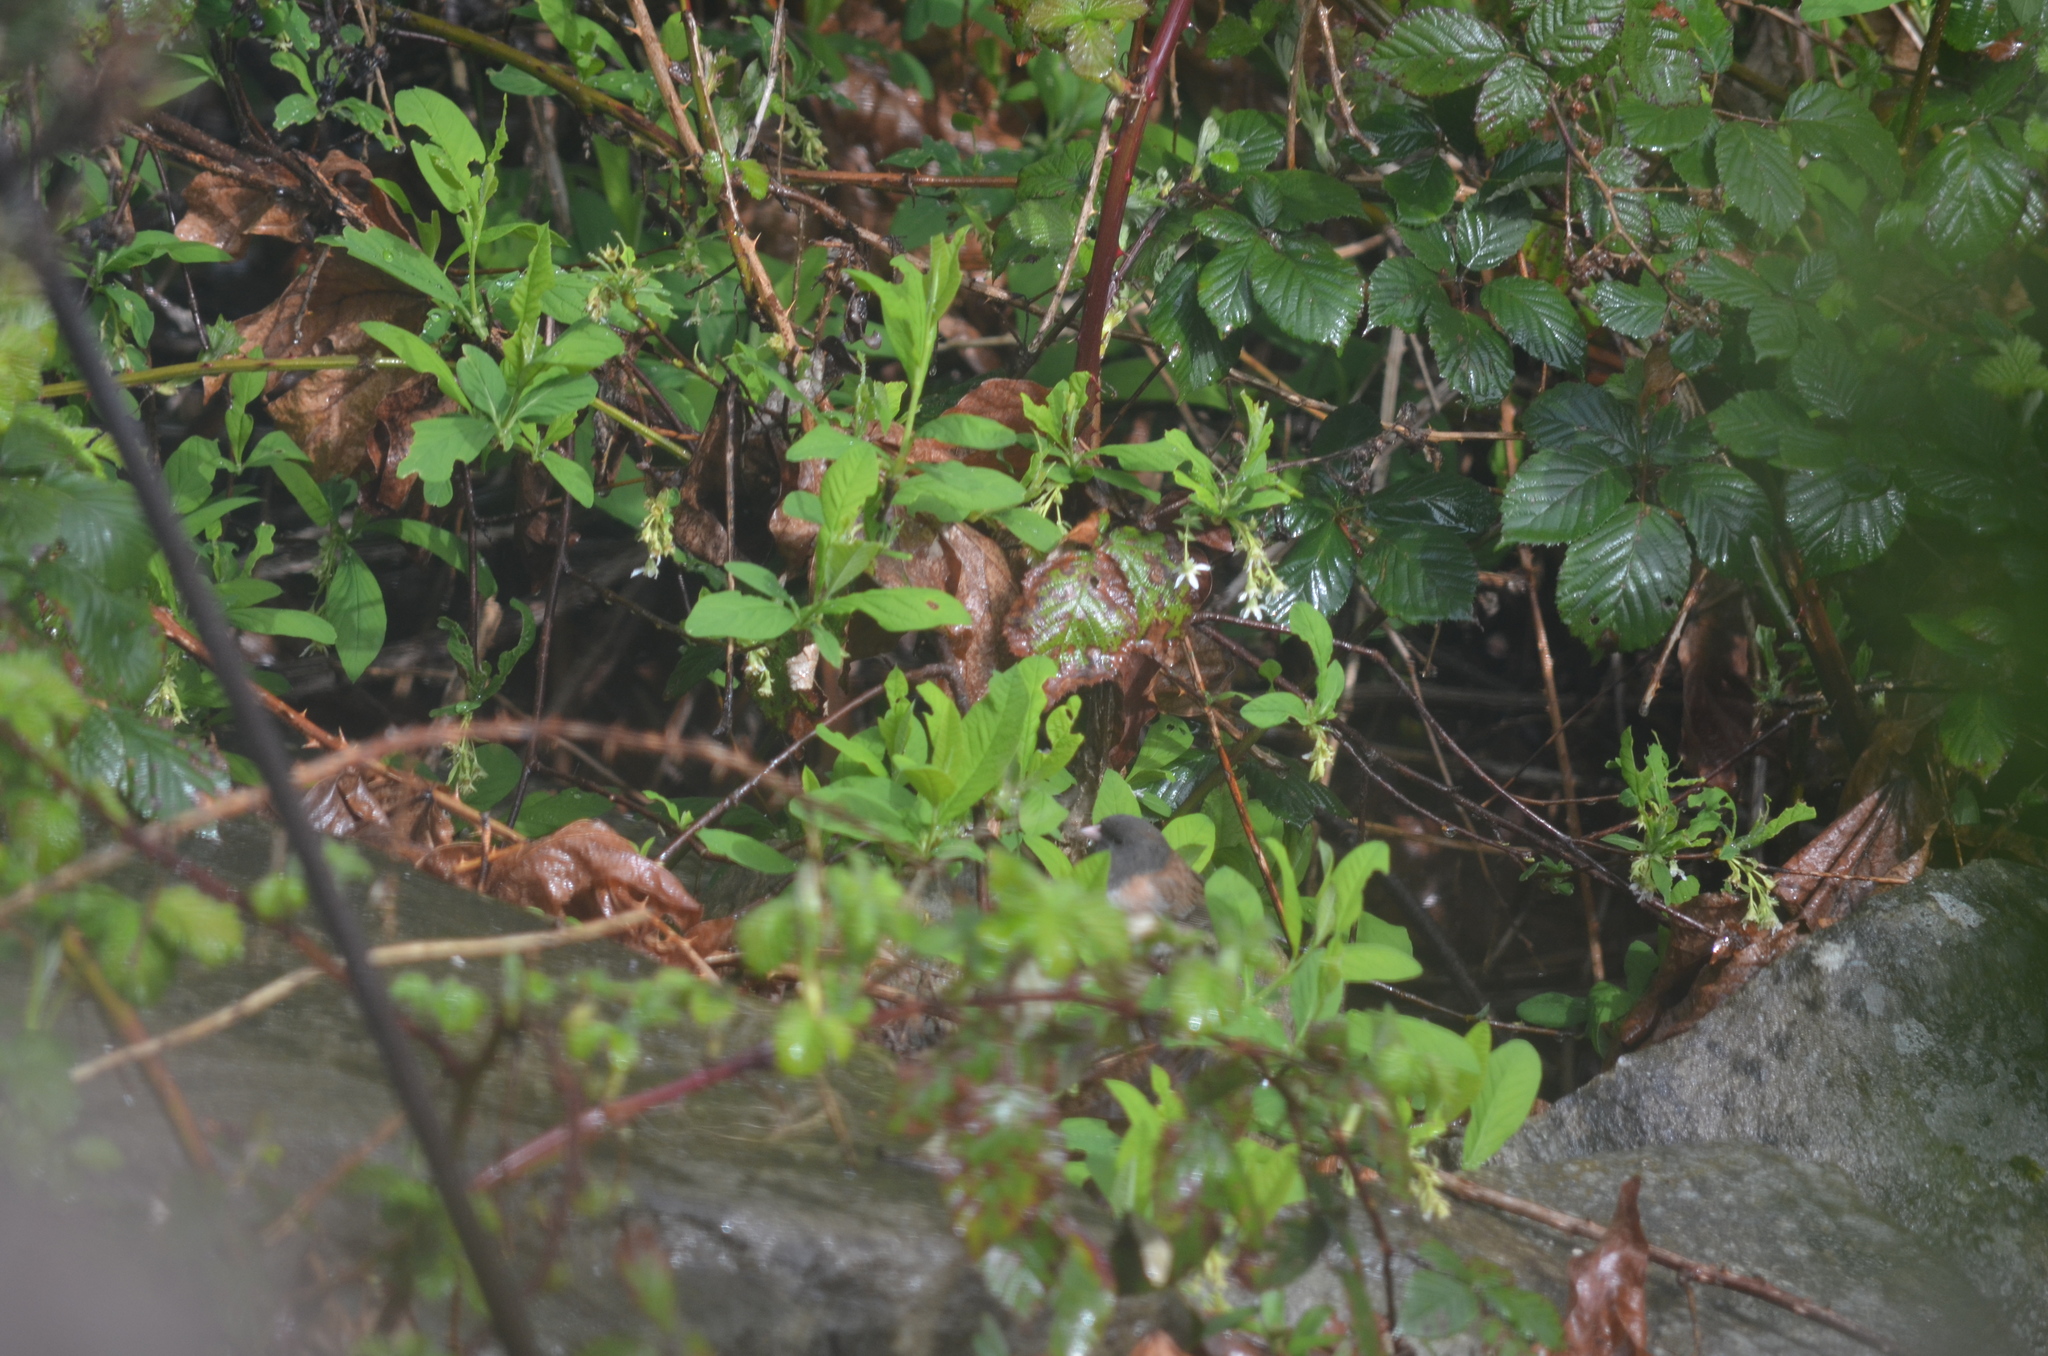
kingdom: Animalia
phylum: Chordata
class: Aves
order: Passeriformes
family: Passerellidae
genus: Junco
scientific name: Junco hyemalis
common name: Dark-eyed junco
